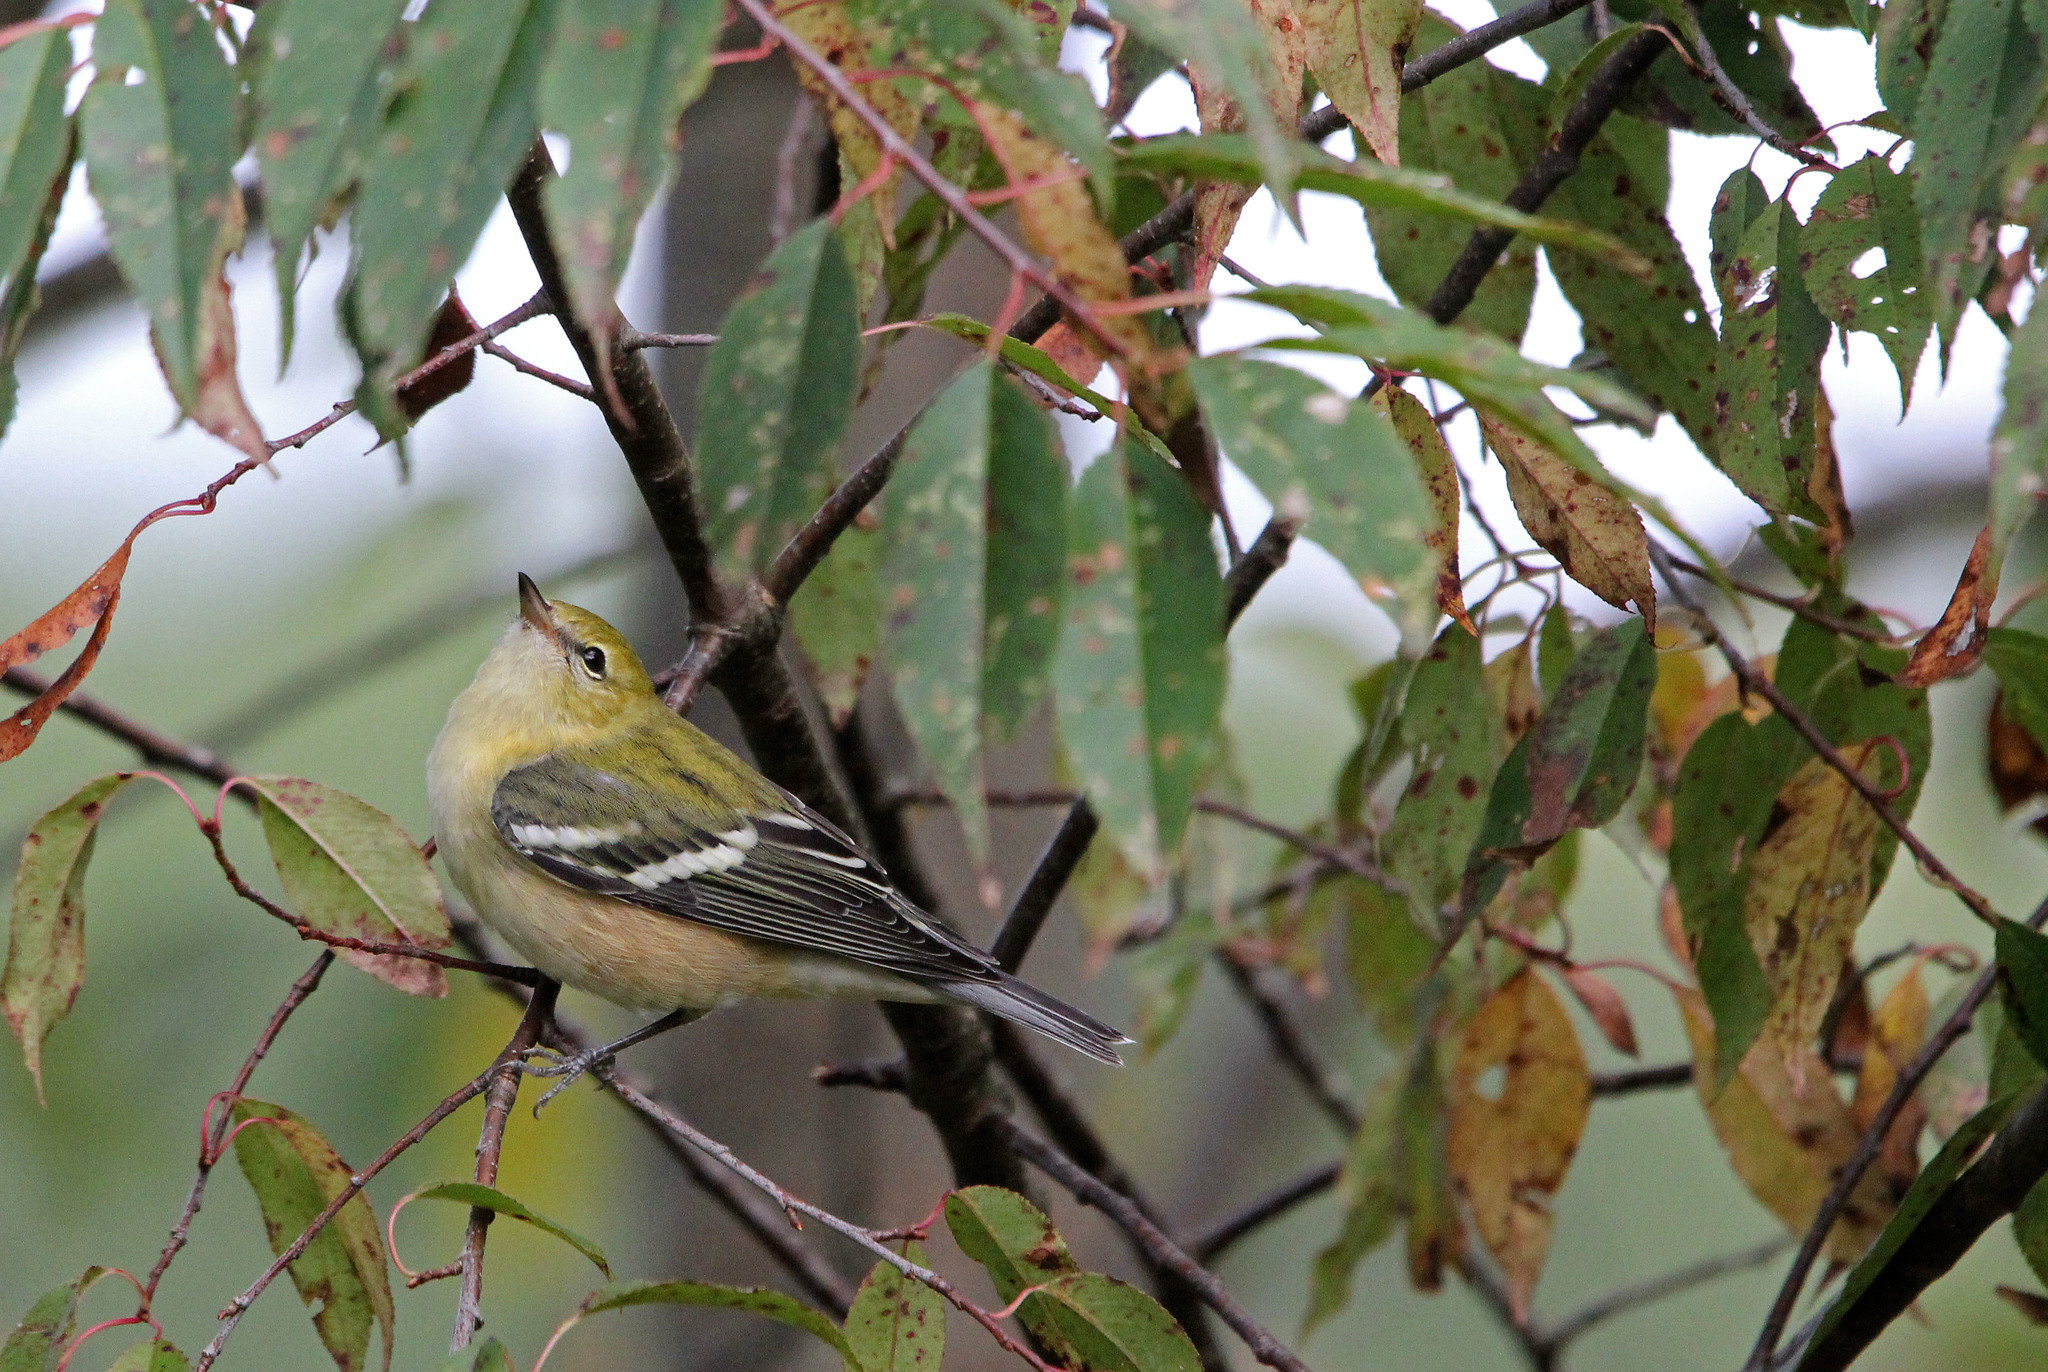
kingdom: Animalia
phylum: Chordata
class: Aves
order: Passeriformes
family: Parulidae
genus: Setophaga
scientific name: Setophaga castanea
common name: Bay-breasted warbler
